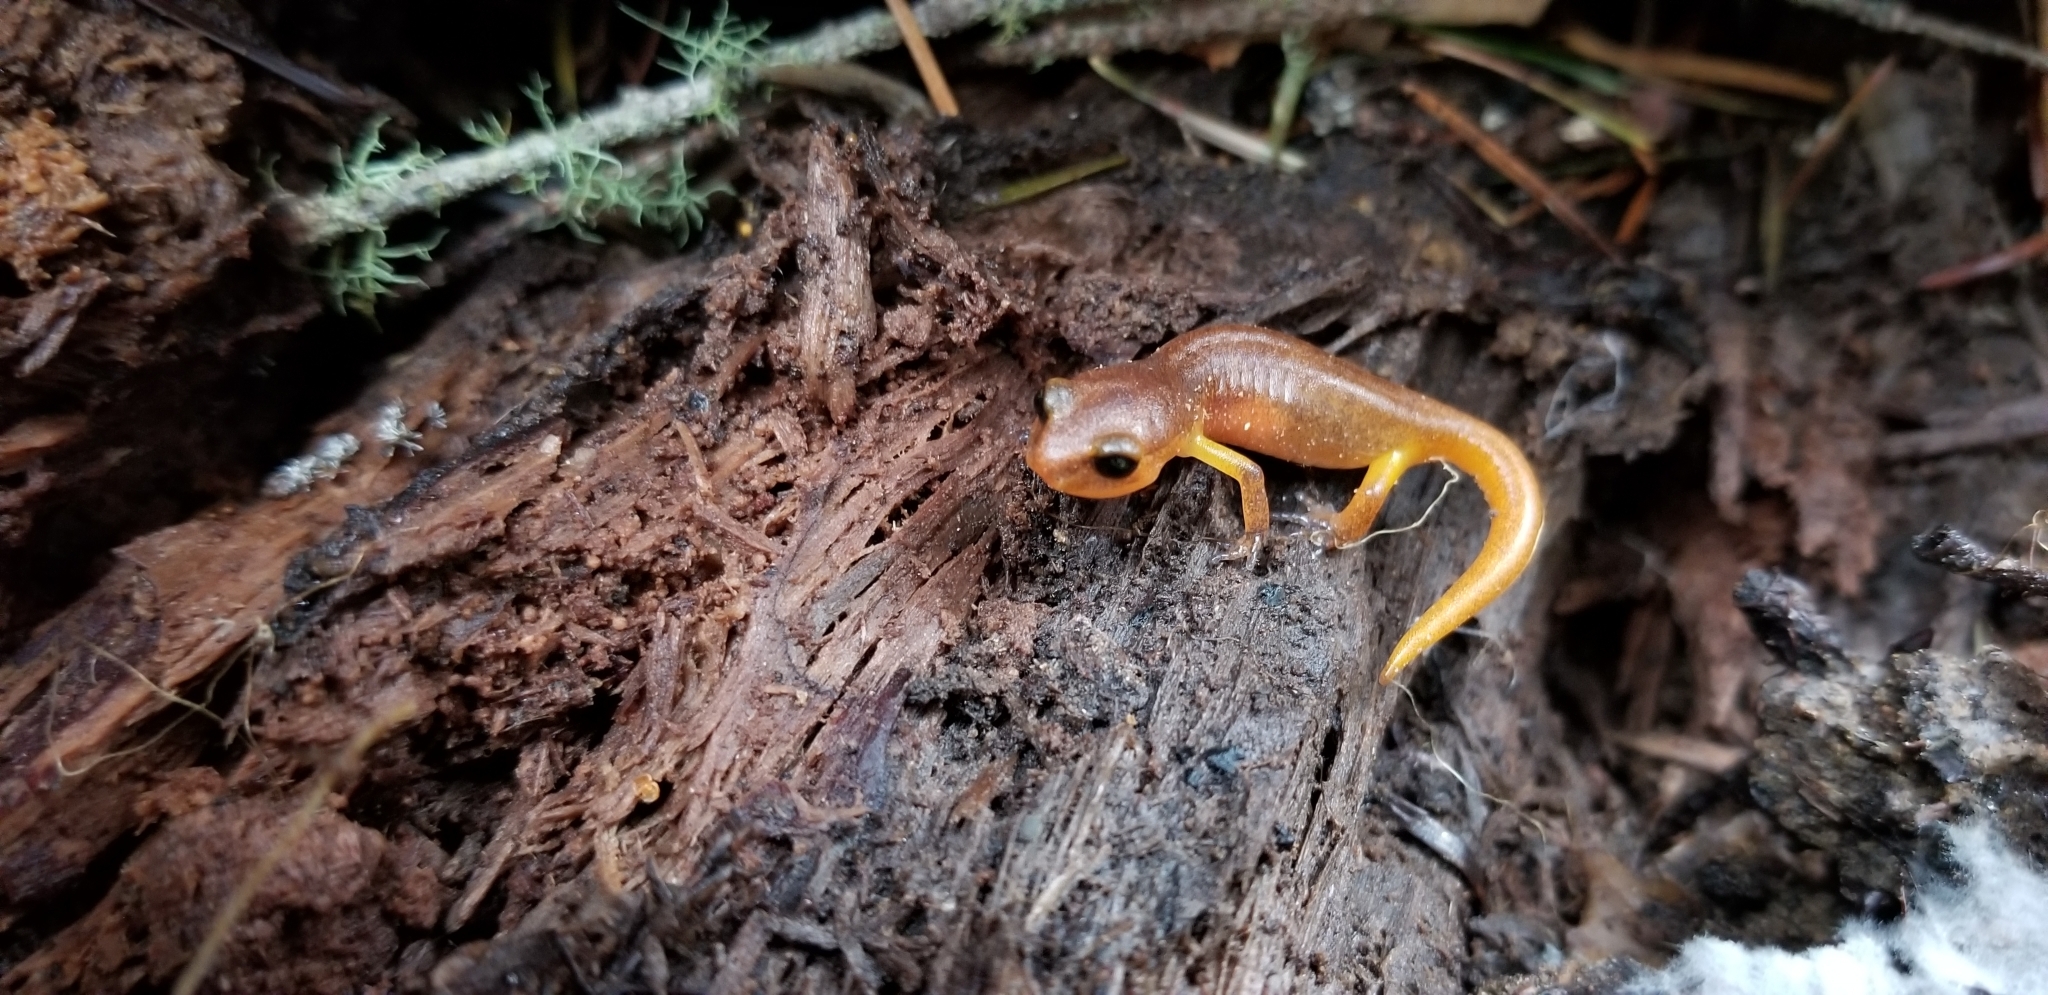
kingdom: Animalia
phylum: Chordata
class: Amphibia
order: Caudata
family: Plethodontidae
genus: Ensatina
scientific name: Ensatina eschscholtzii
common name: Ensatina
